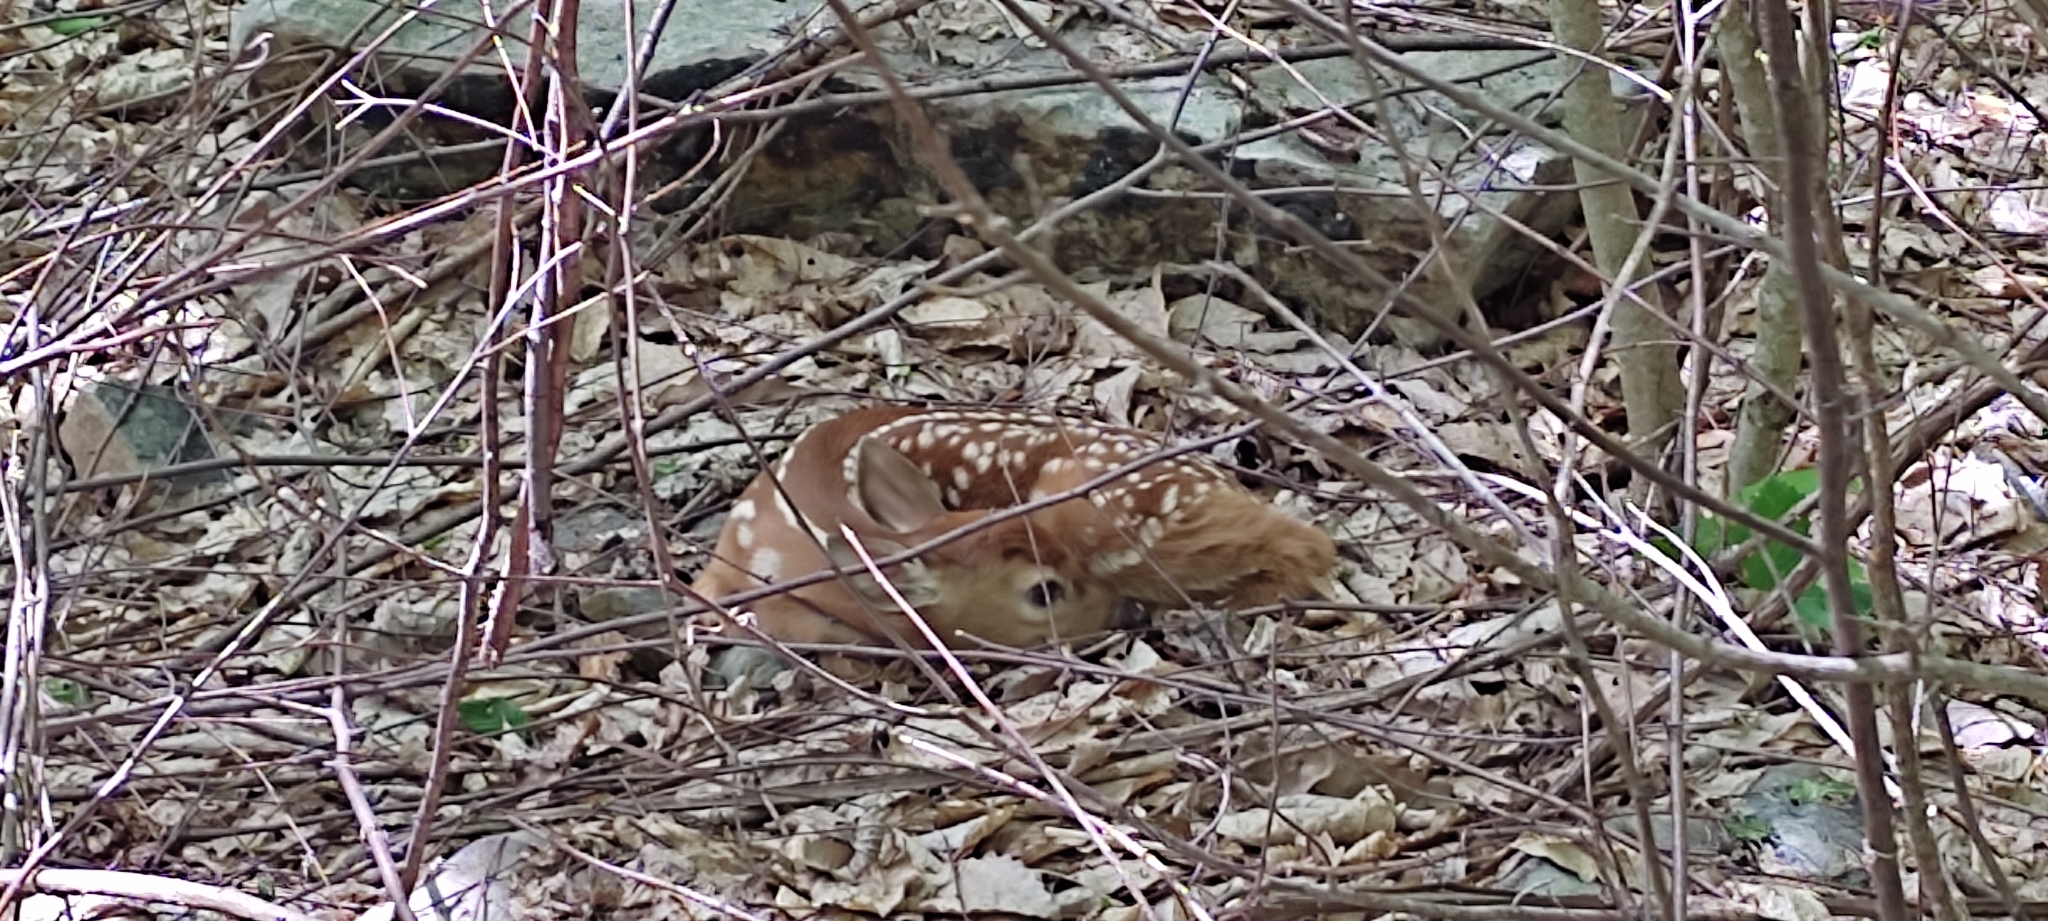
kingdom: Animalia
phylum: Chordata
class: Mammalia
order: Artiodactyla
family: Cervidae
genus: Odocoileus
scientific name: Odocoileus virginianus
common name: White-tailed deer
